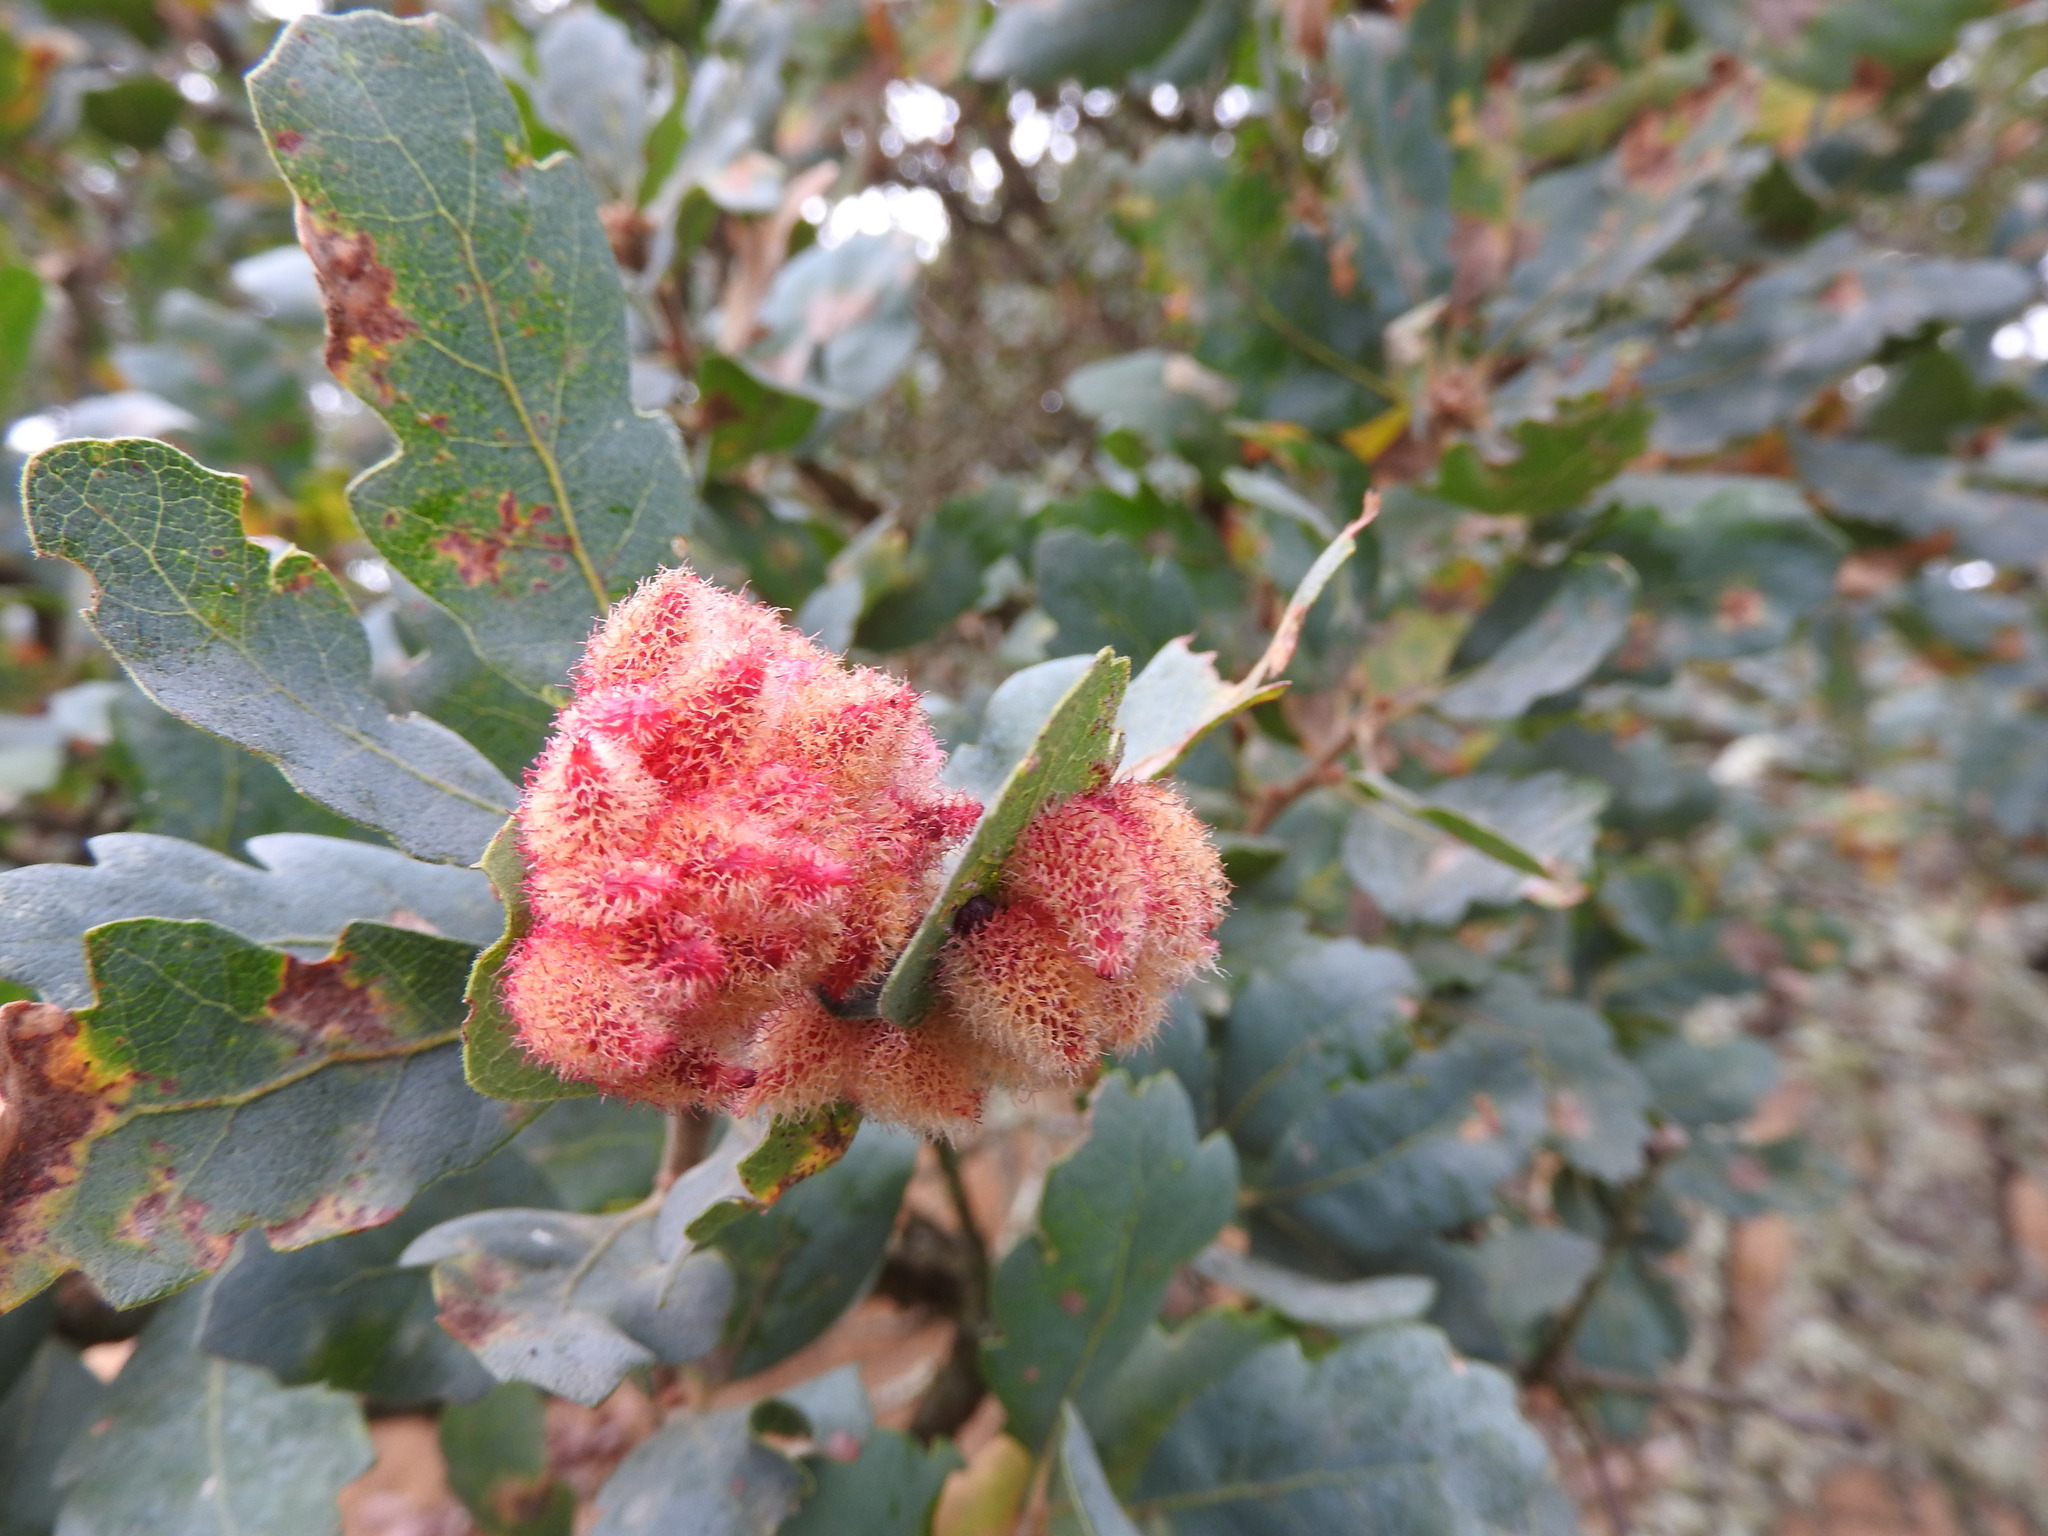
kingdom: Animalia
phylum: Arthropoda
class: Insecta
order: Hymenoptera
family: Cynipidae
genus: Andricus
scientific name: Andricus
